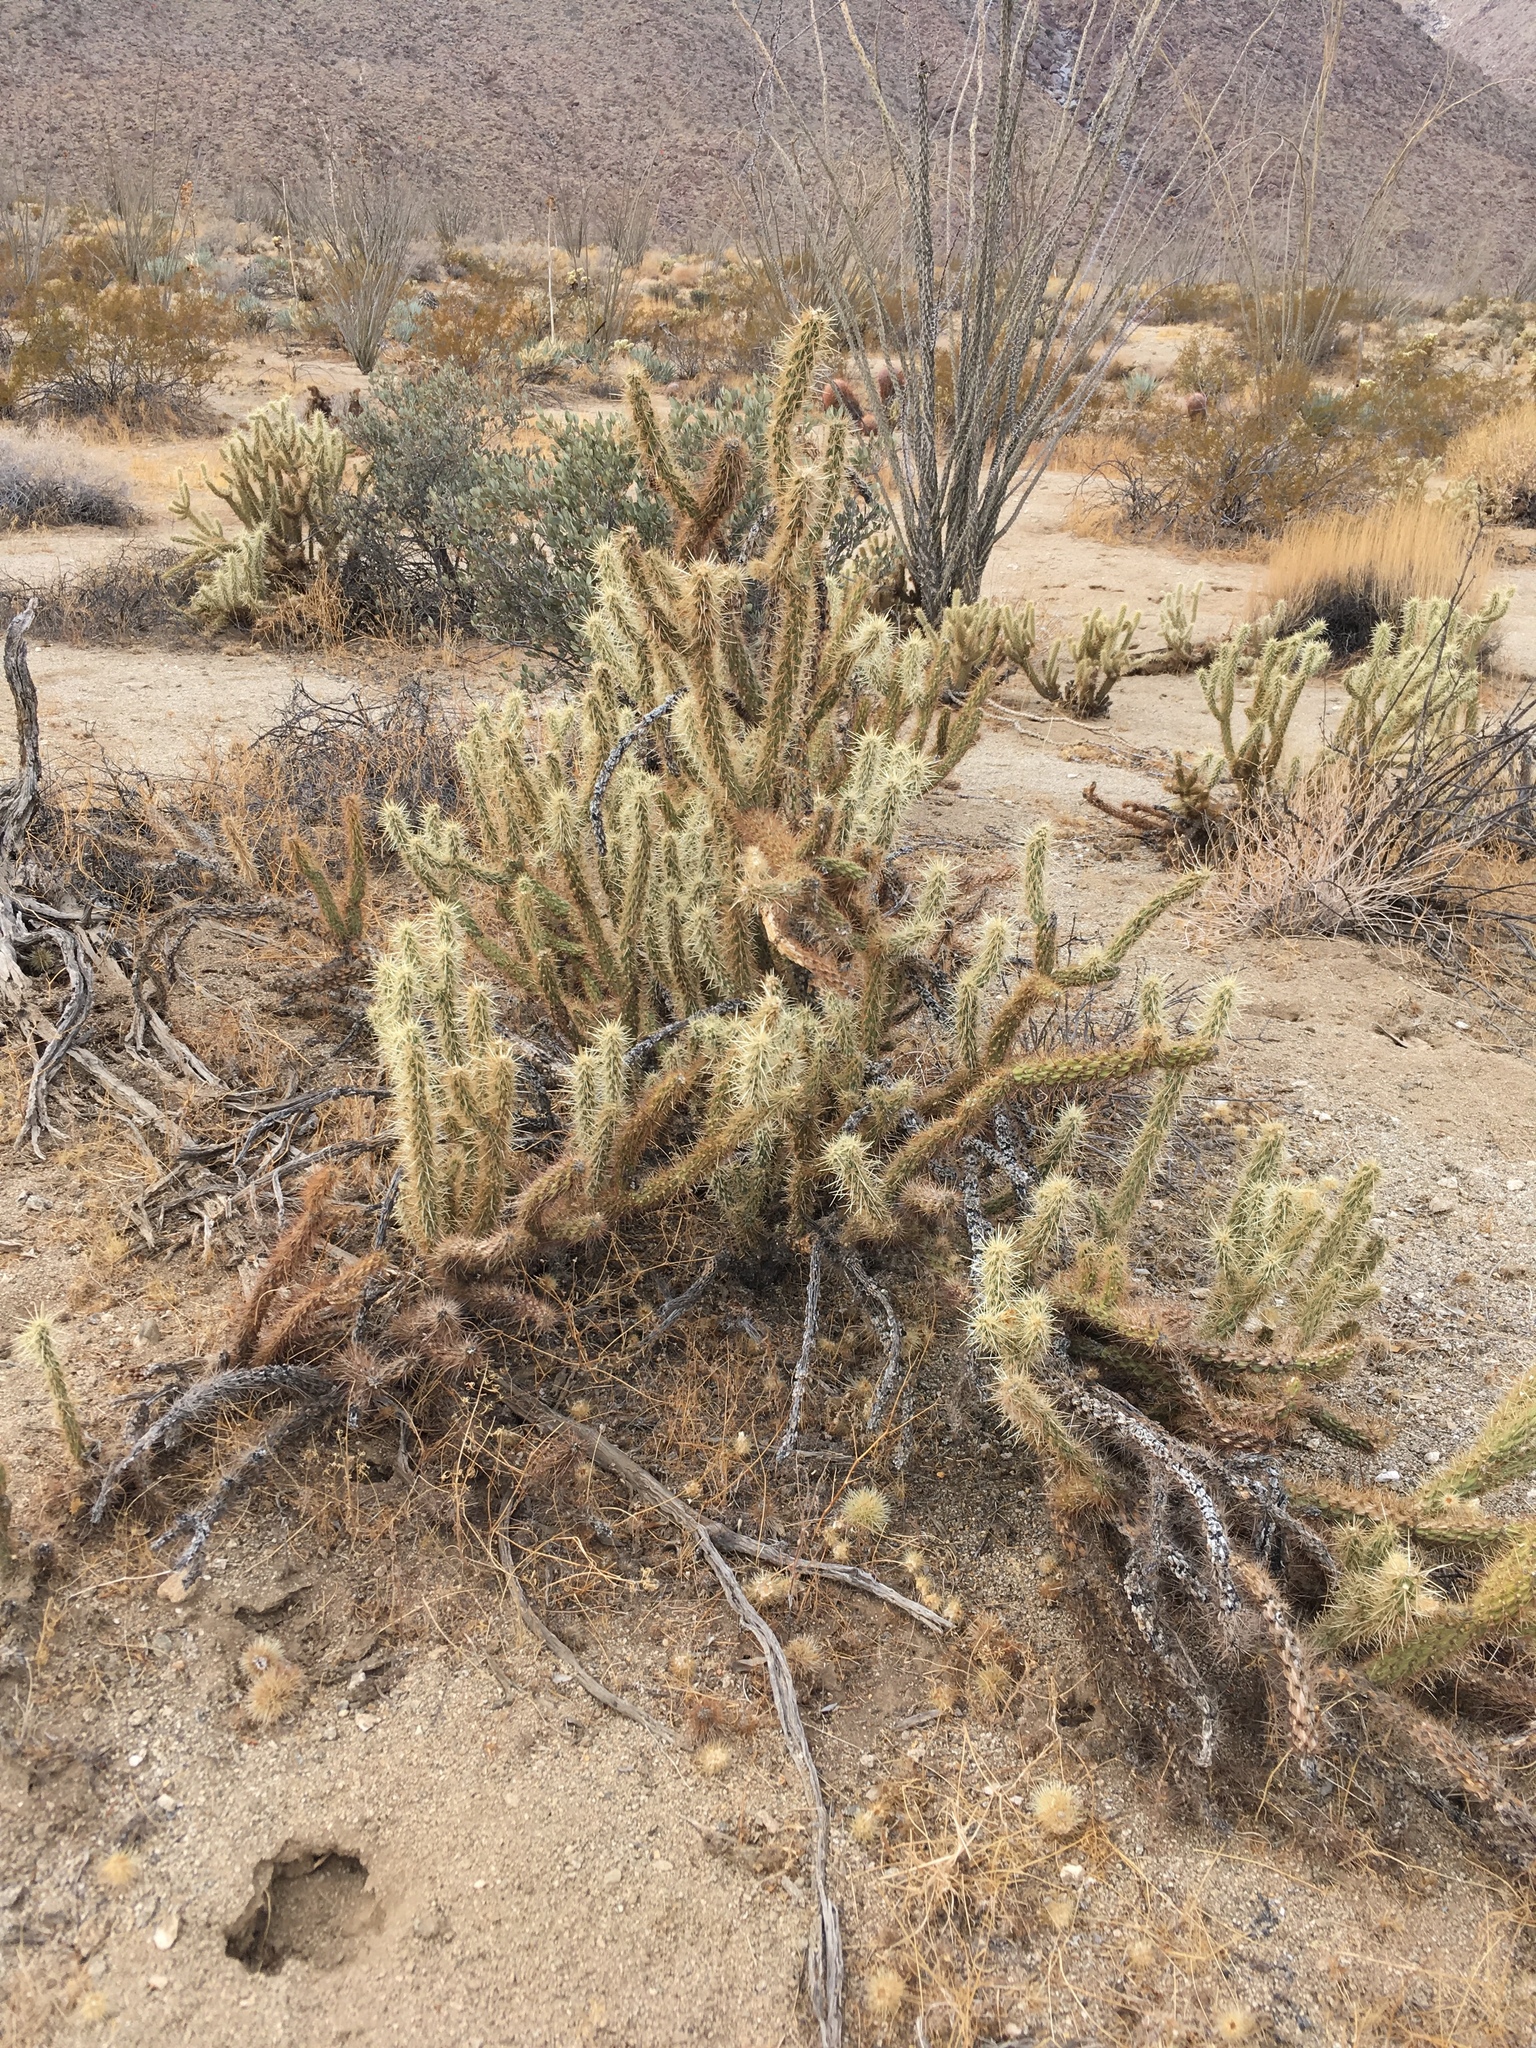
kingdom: Plantae
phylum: Tracheophyta
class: Magnoliopsida
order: Caryophyllales
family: Cactaceae
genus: Cylindropuntia
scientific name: Cylindropuntia ganderi
